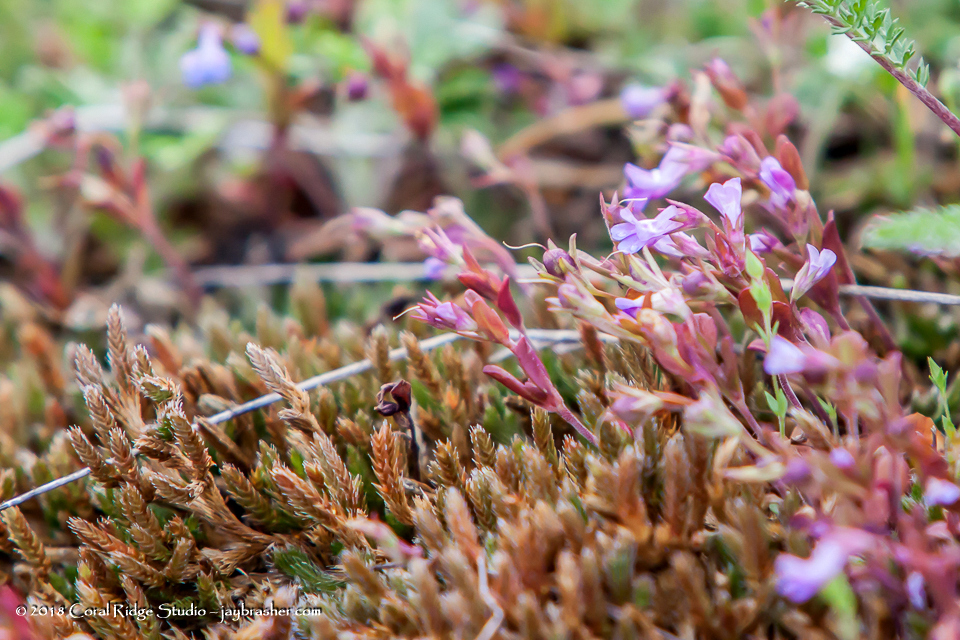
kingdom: Plantae
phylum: Tracheophyta
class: Magnoliopsida
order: Lamiales
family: Plantaginaceae
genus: Collinsia
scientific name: Collinsia parviflora
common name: Blue-lips
